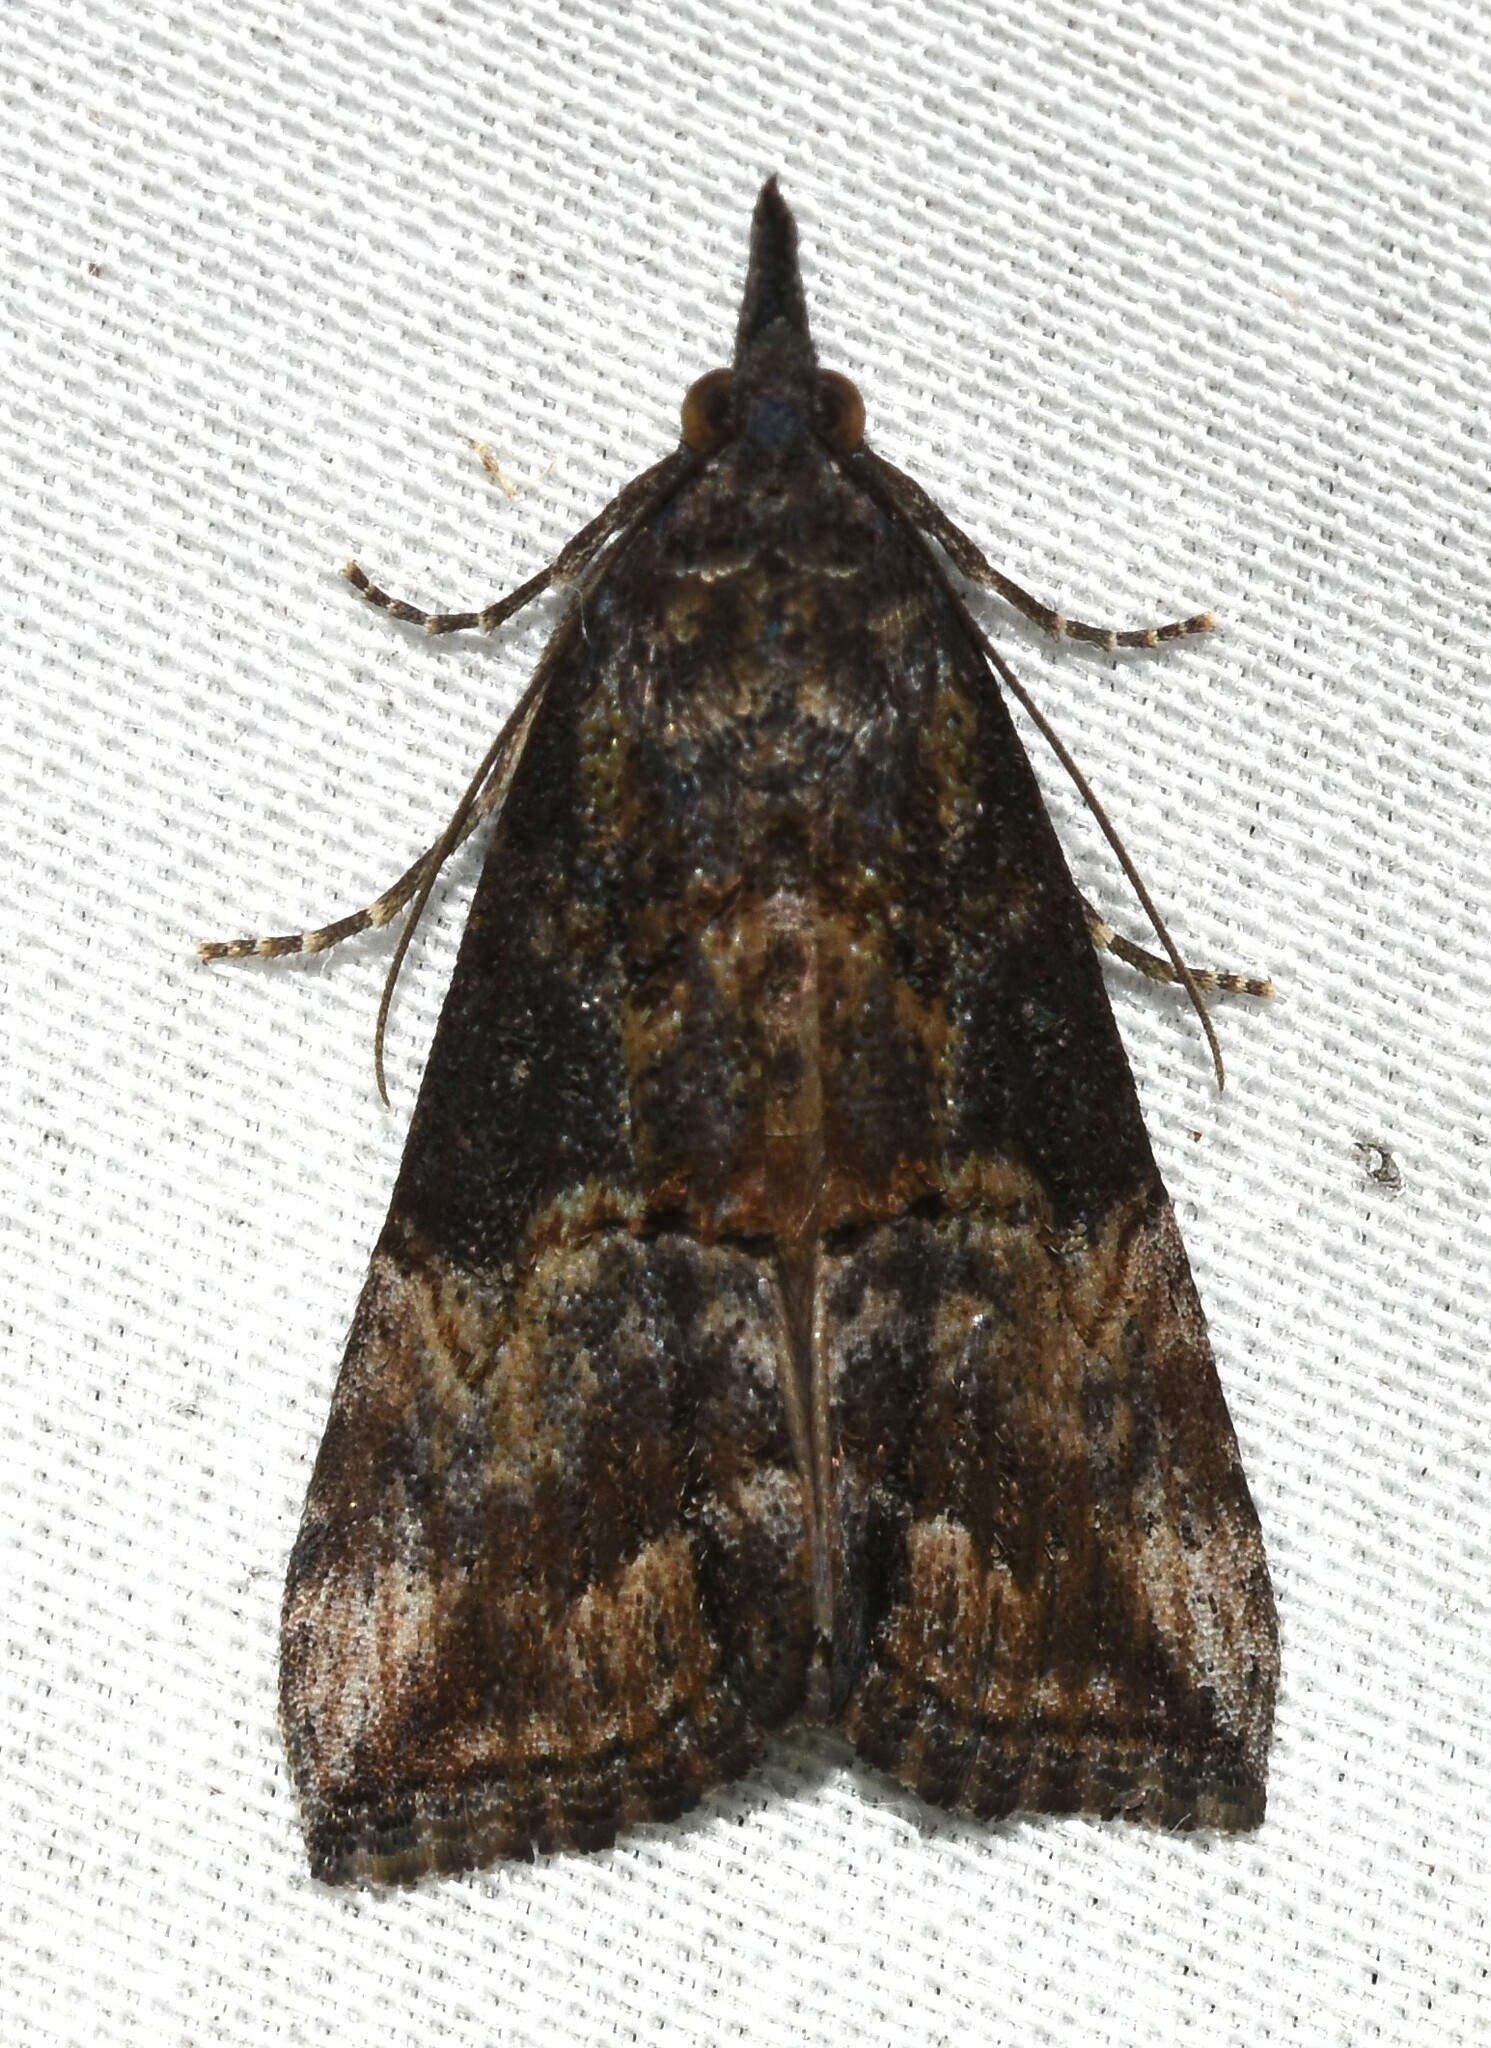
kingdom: Animalia
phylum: Arthropoda
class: Insecta
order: Lepidoptera
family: Erebidae
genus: Hypena
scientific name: Hypena scabra
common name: Green cloverworm
